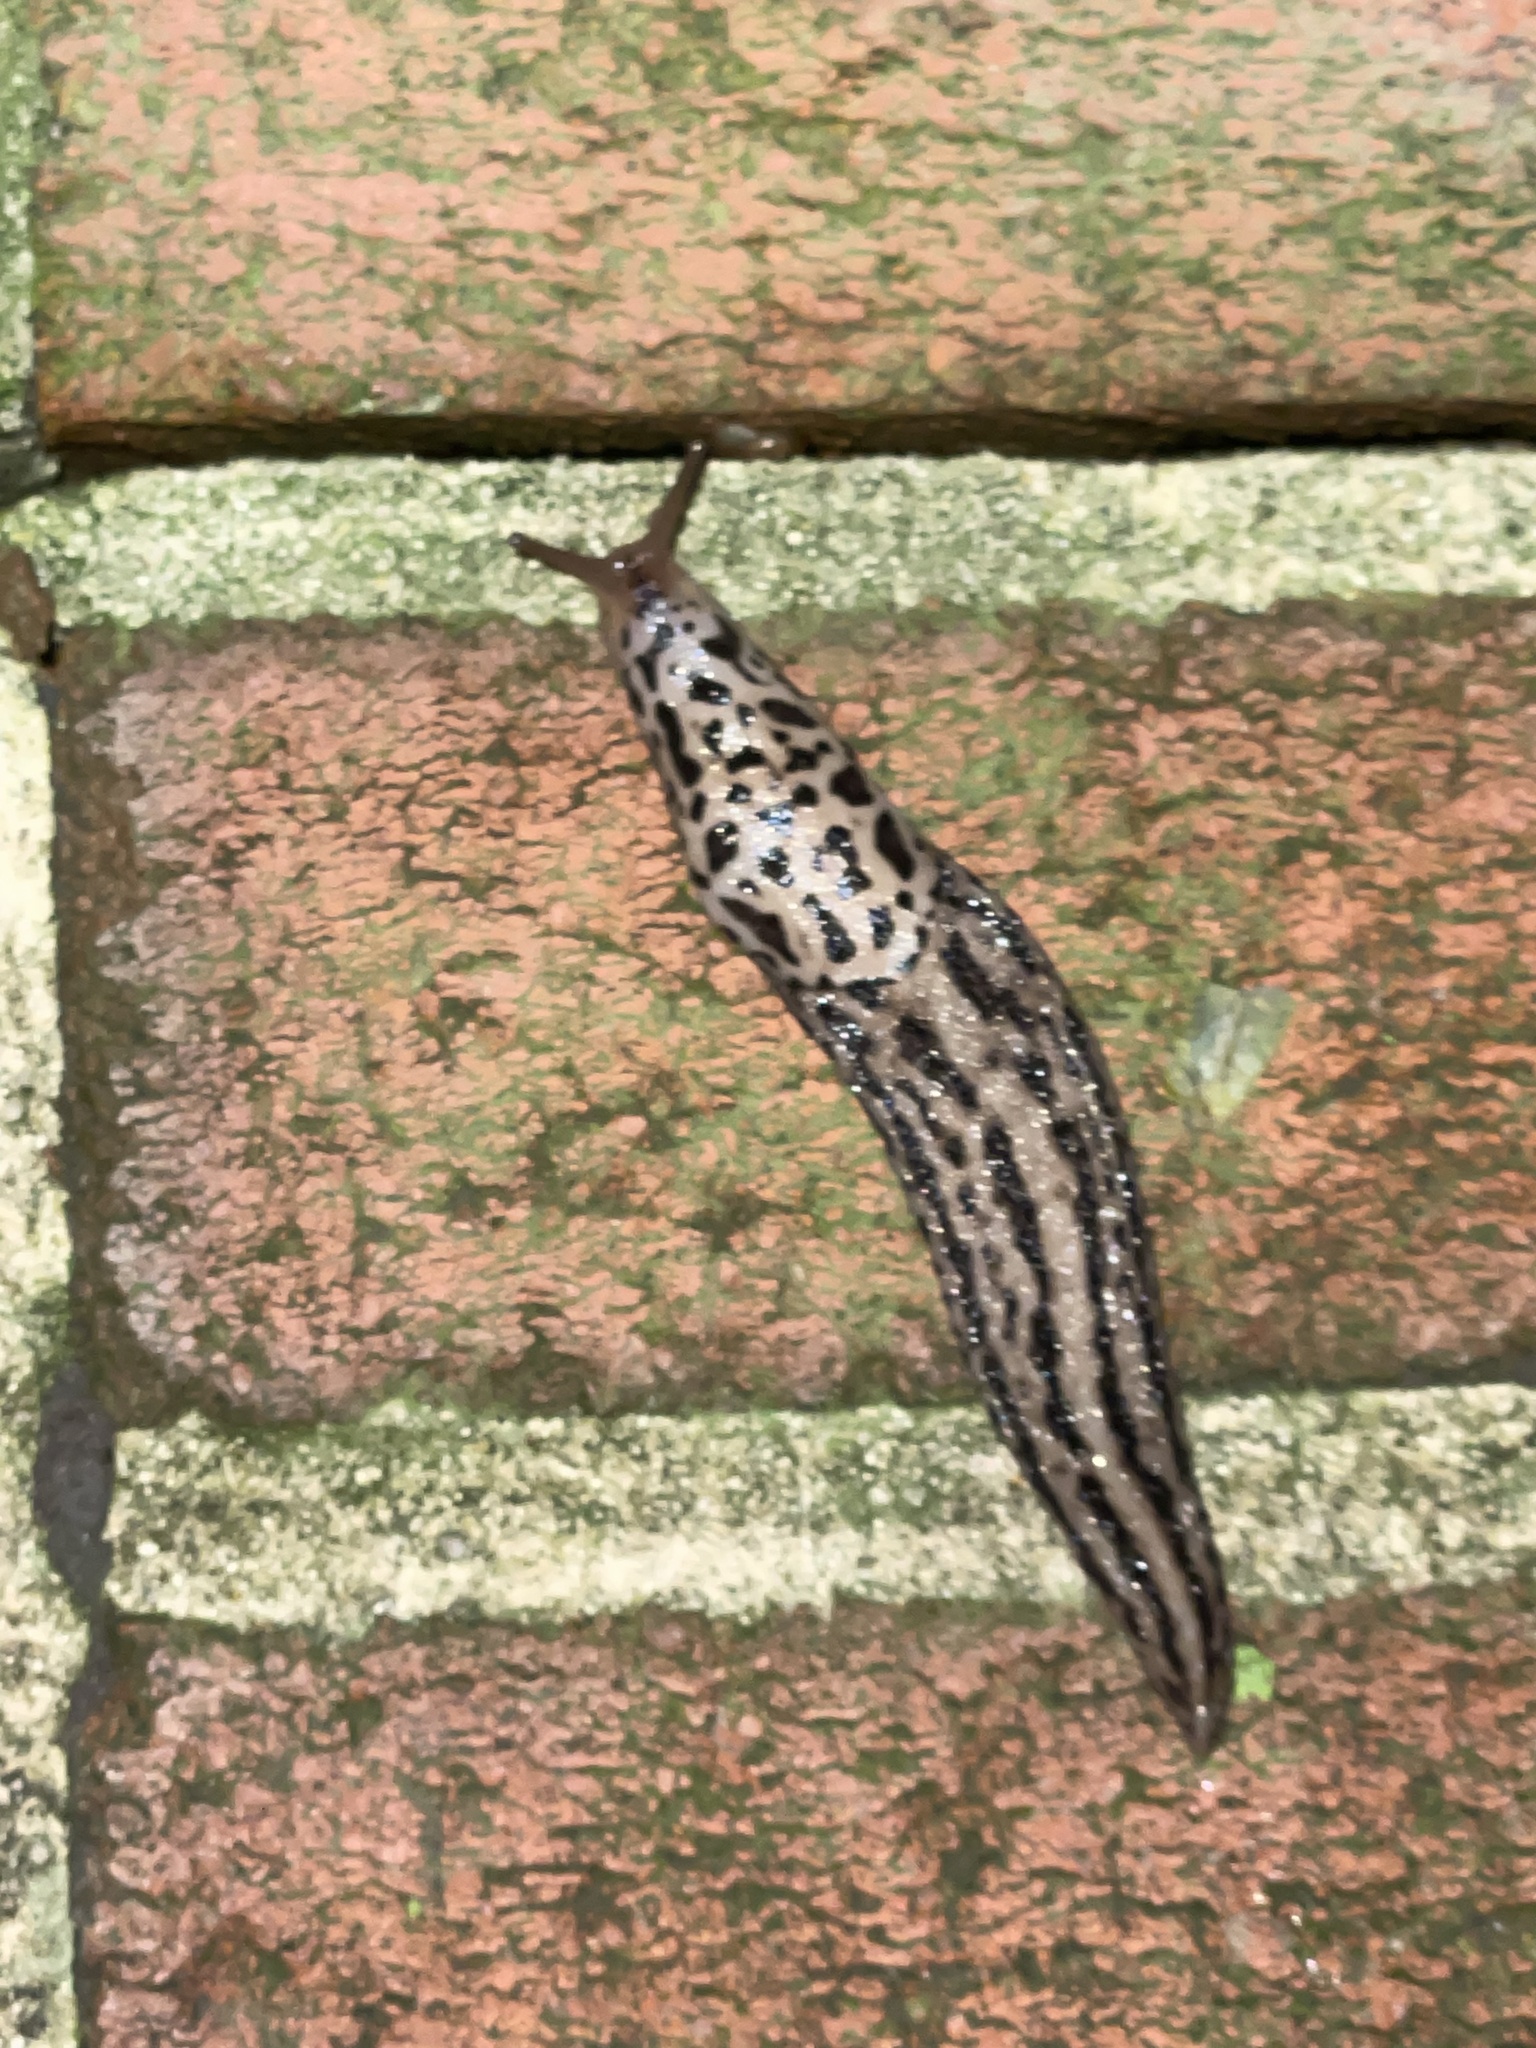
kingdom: Animalia
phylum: Mollusca
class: Gastropoda
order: Stylommatophora
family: Limacidae
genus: Limax
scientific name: Limax maximus
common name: Great grey slug
